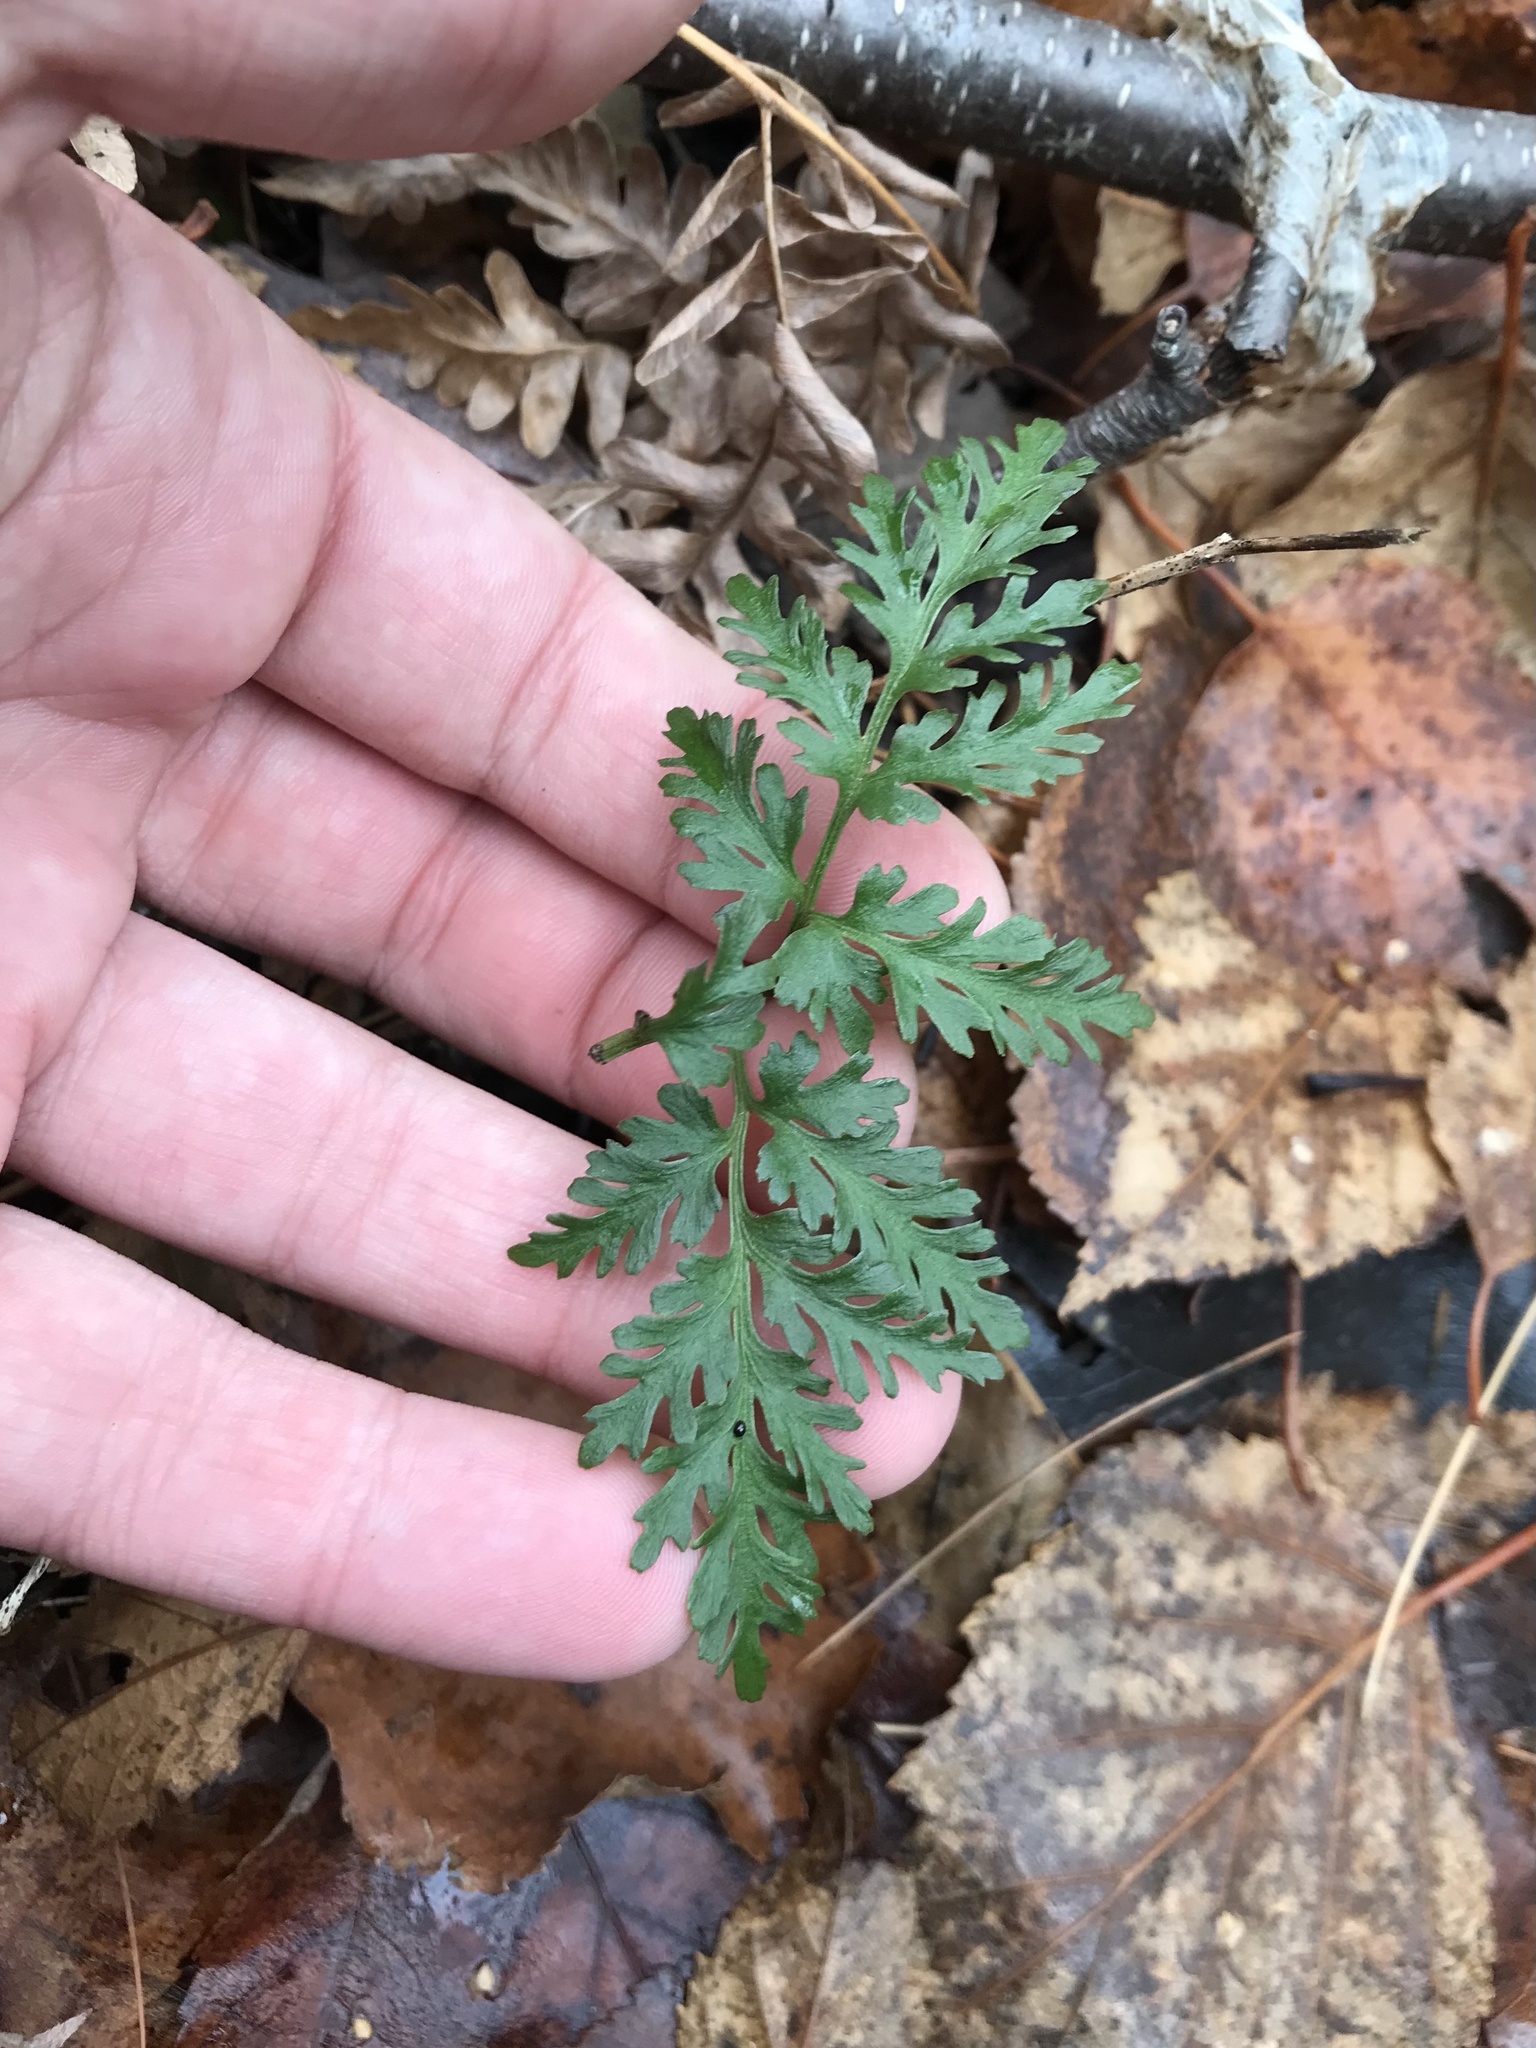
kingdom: Plantae
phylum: Tracheophyta
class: Polypodiopsida
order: Ophioglossales
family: Ophioglossaceae
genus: Sceptridium
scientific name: Sceptridium dissectum
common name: Cut-leaved grapefern
